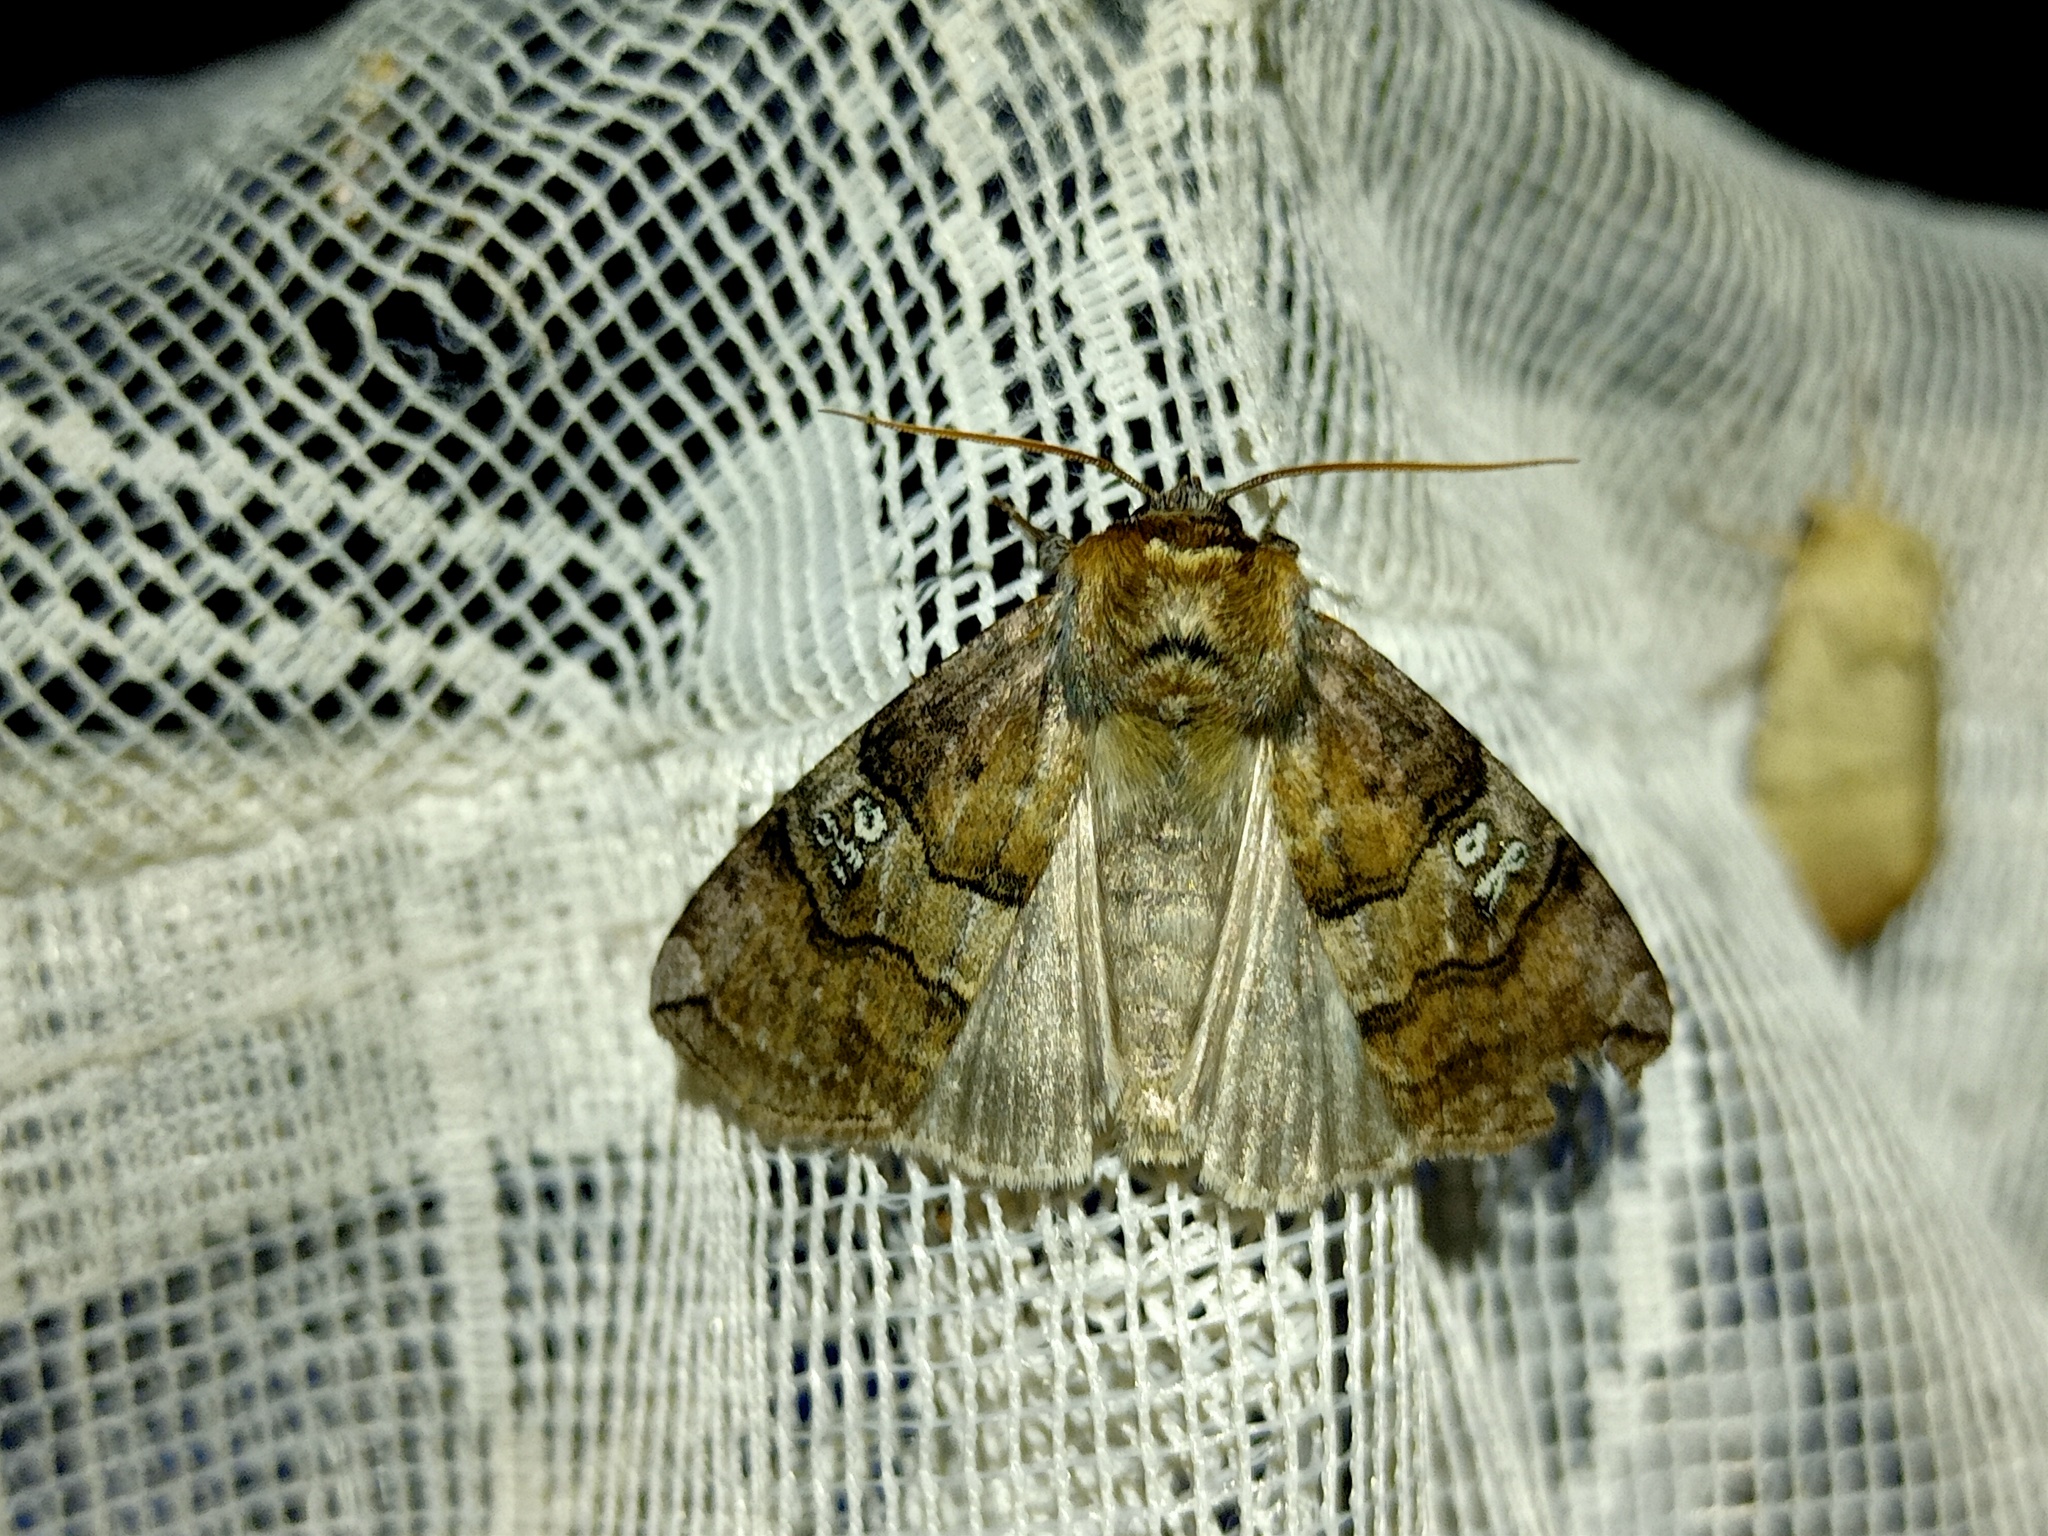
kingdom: Animalia
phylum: Arthropoda
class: Insecta
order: Lepidoptera
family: Drepanidae
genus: Tethea
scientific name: Tethea ocularis
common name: Figure of eighty
